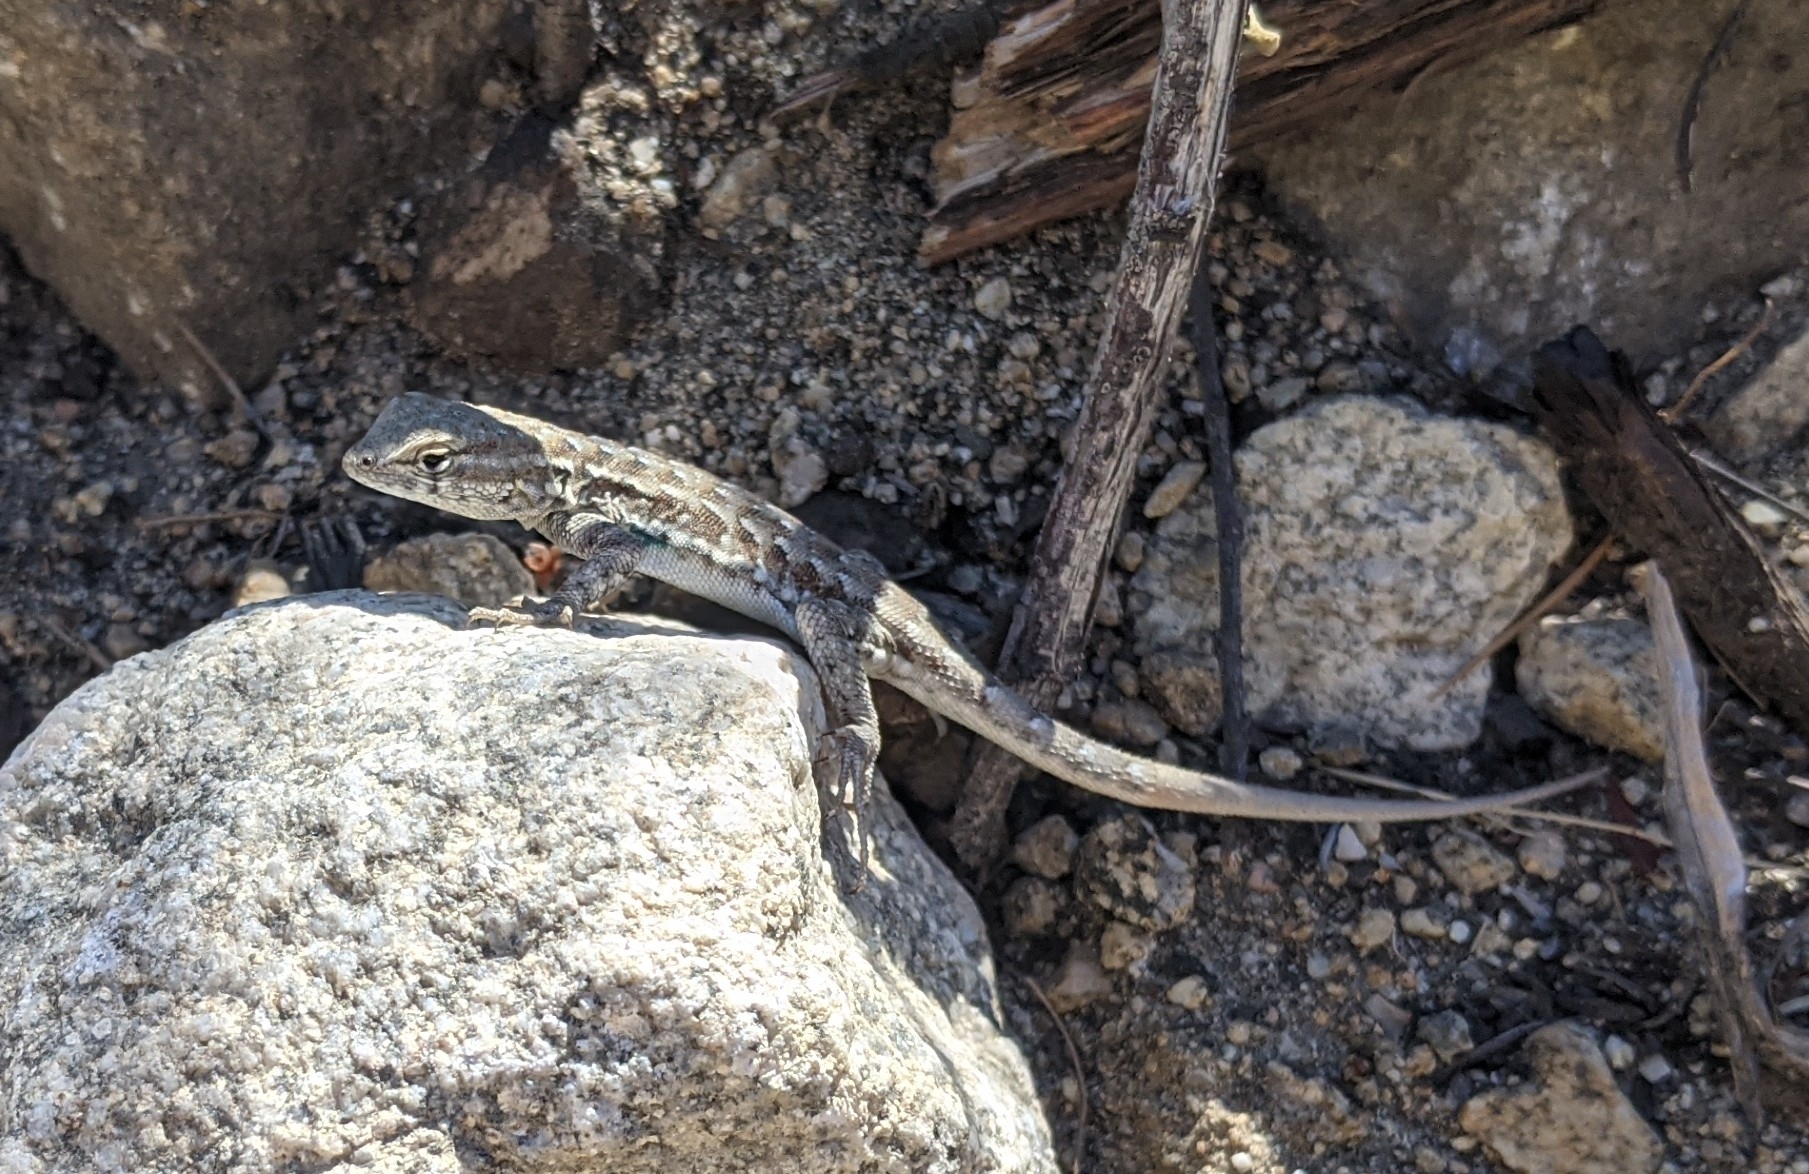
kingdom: Animalia
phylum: Chordata
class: Squamata
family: Phrynosomatidae
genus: Uta
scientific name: Uta stansburiana
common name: Side-blotched lizard
